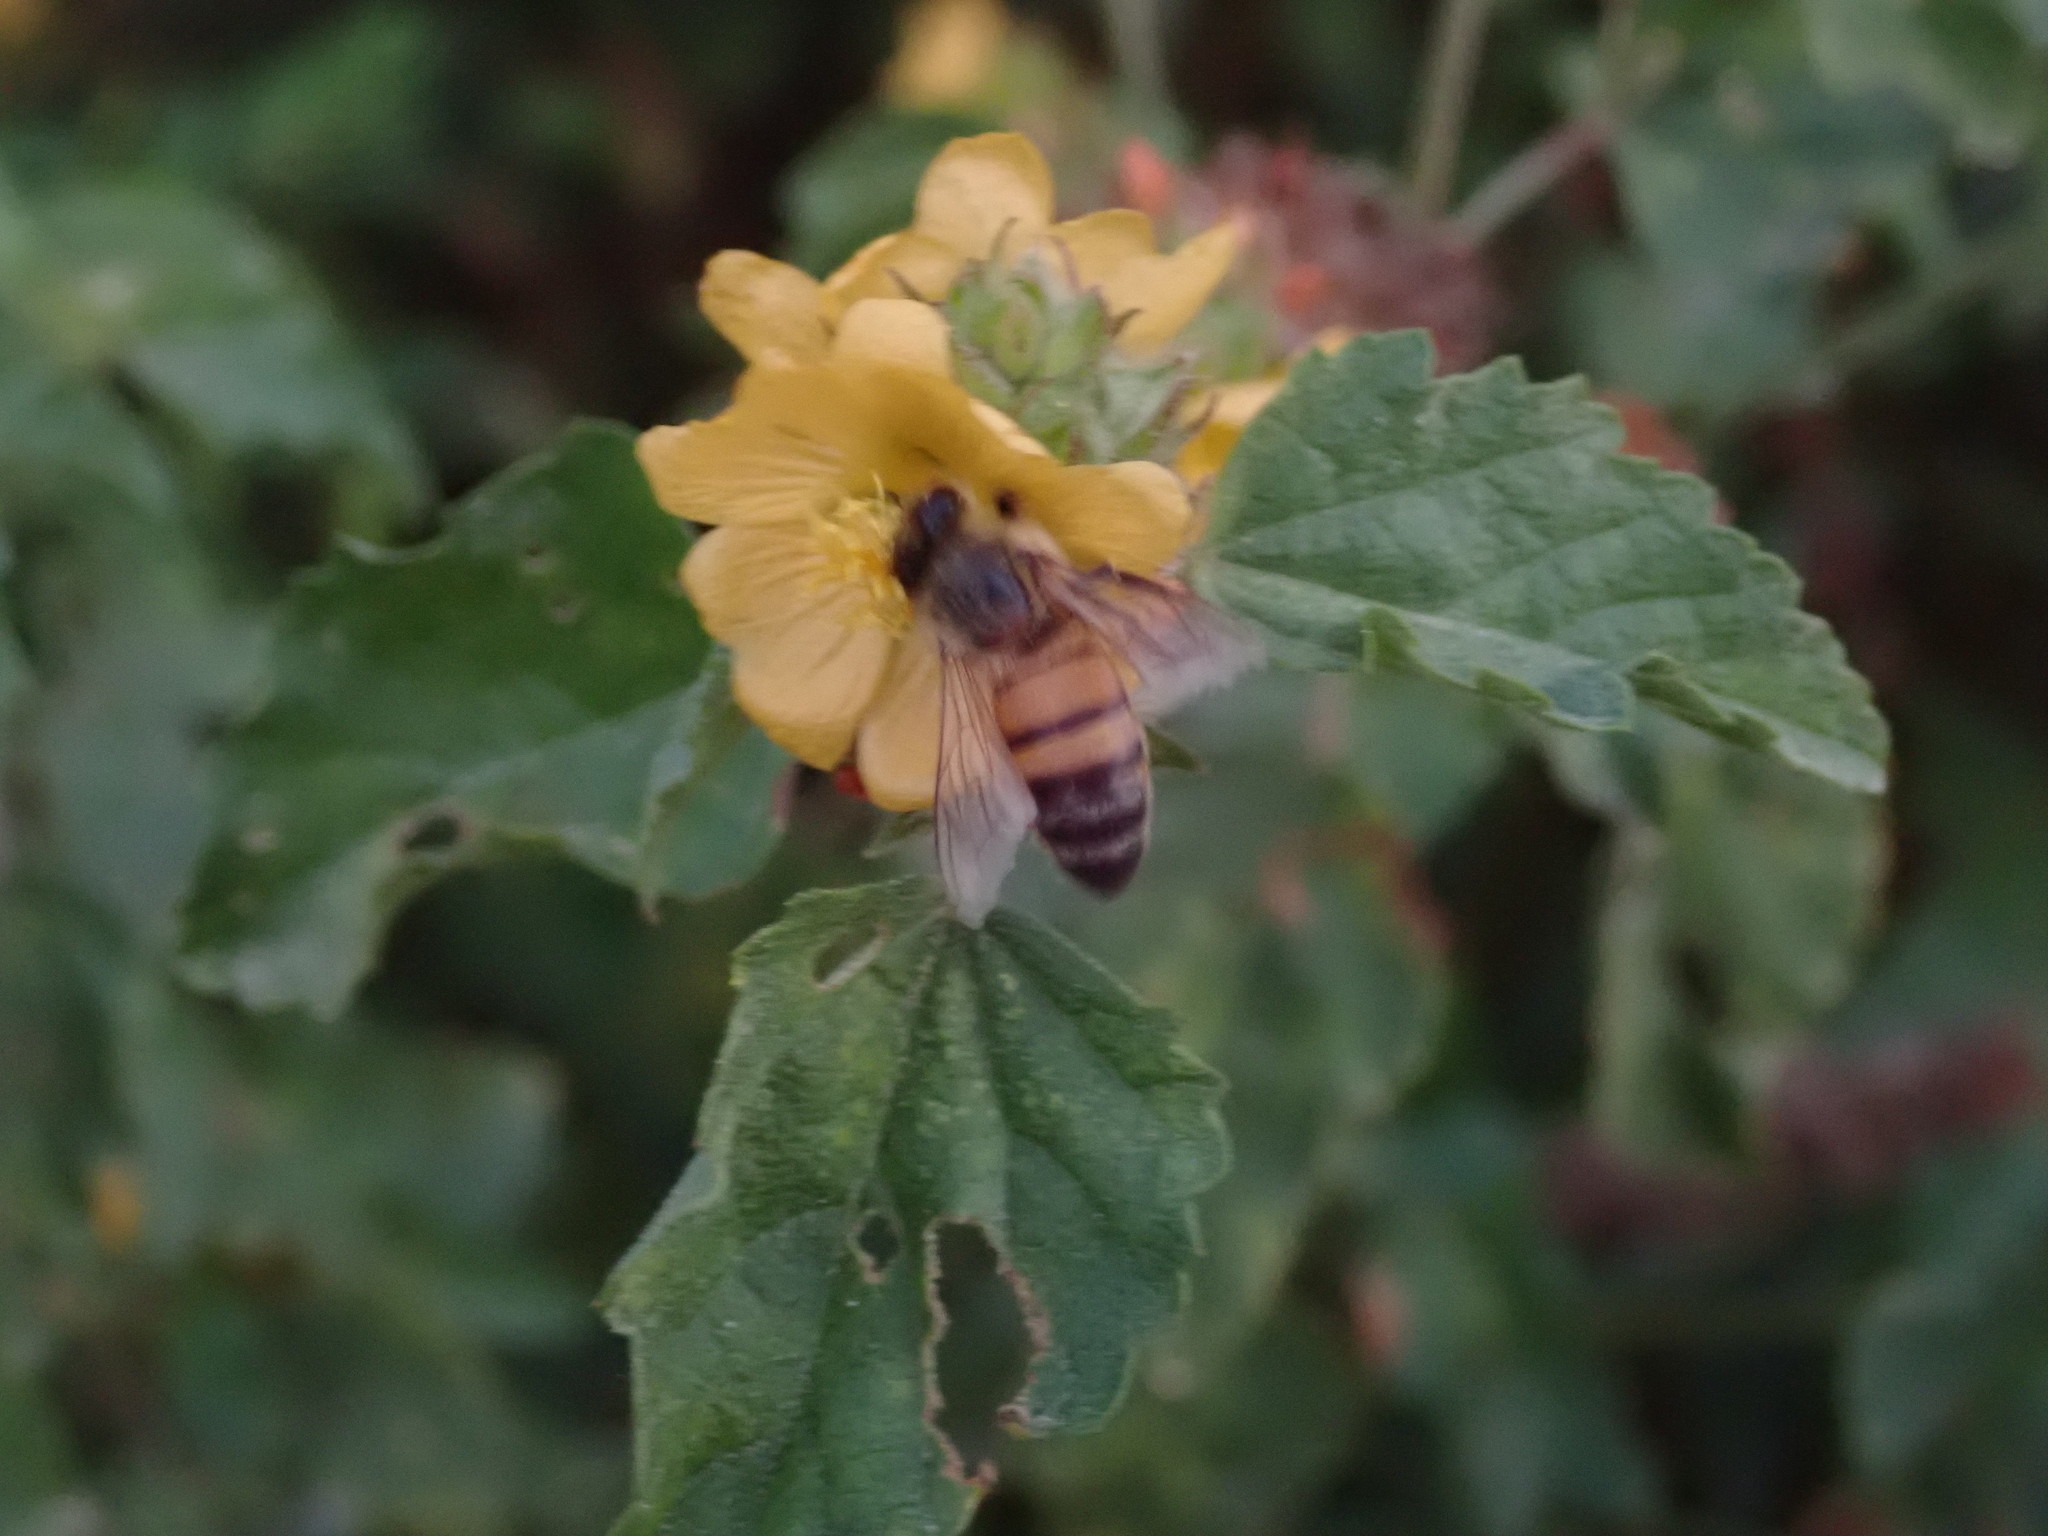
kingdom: Animalia
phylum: Arthropoda
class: Insecta
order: Hymenoptera
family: Apidae
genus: Apis
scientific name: Apis mellifera
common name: Honey bee
